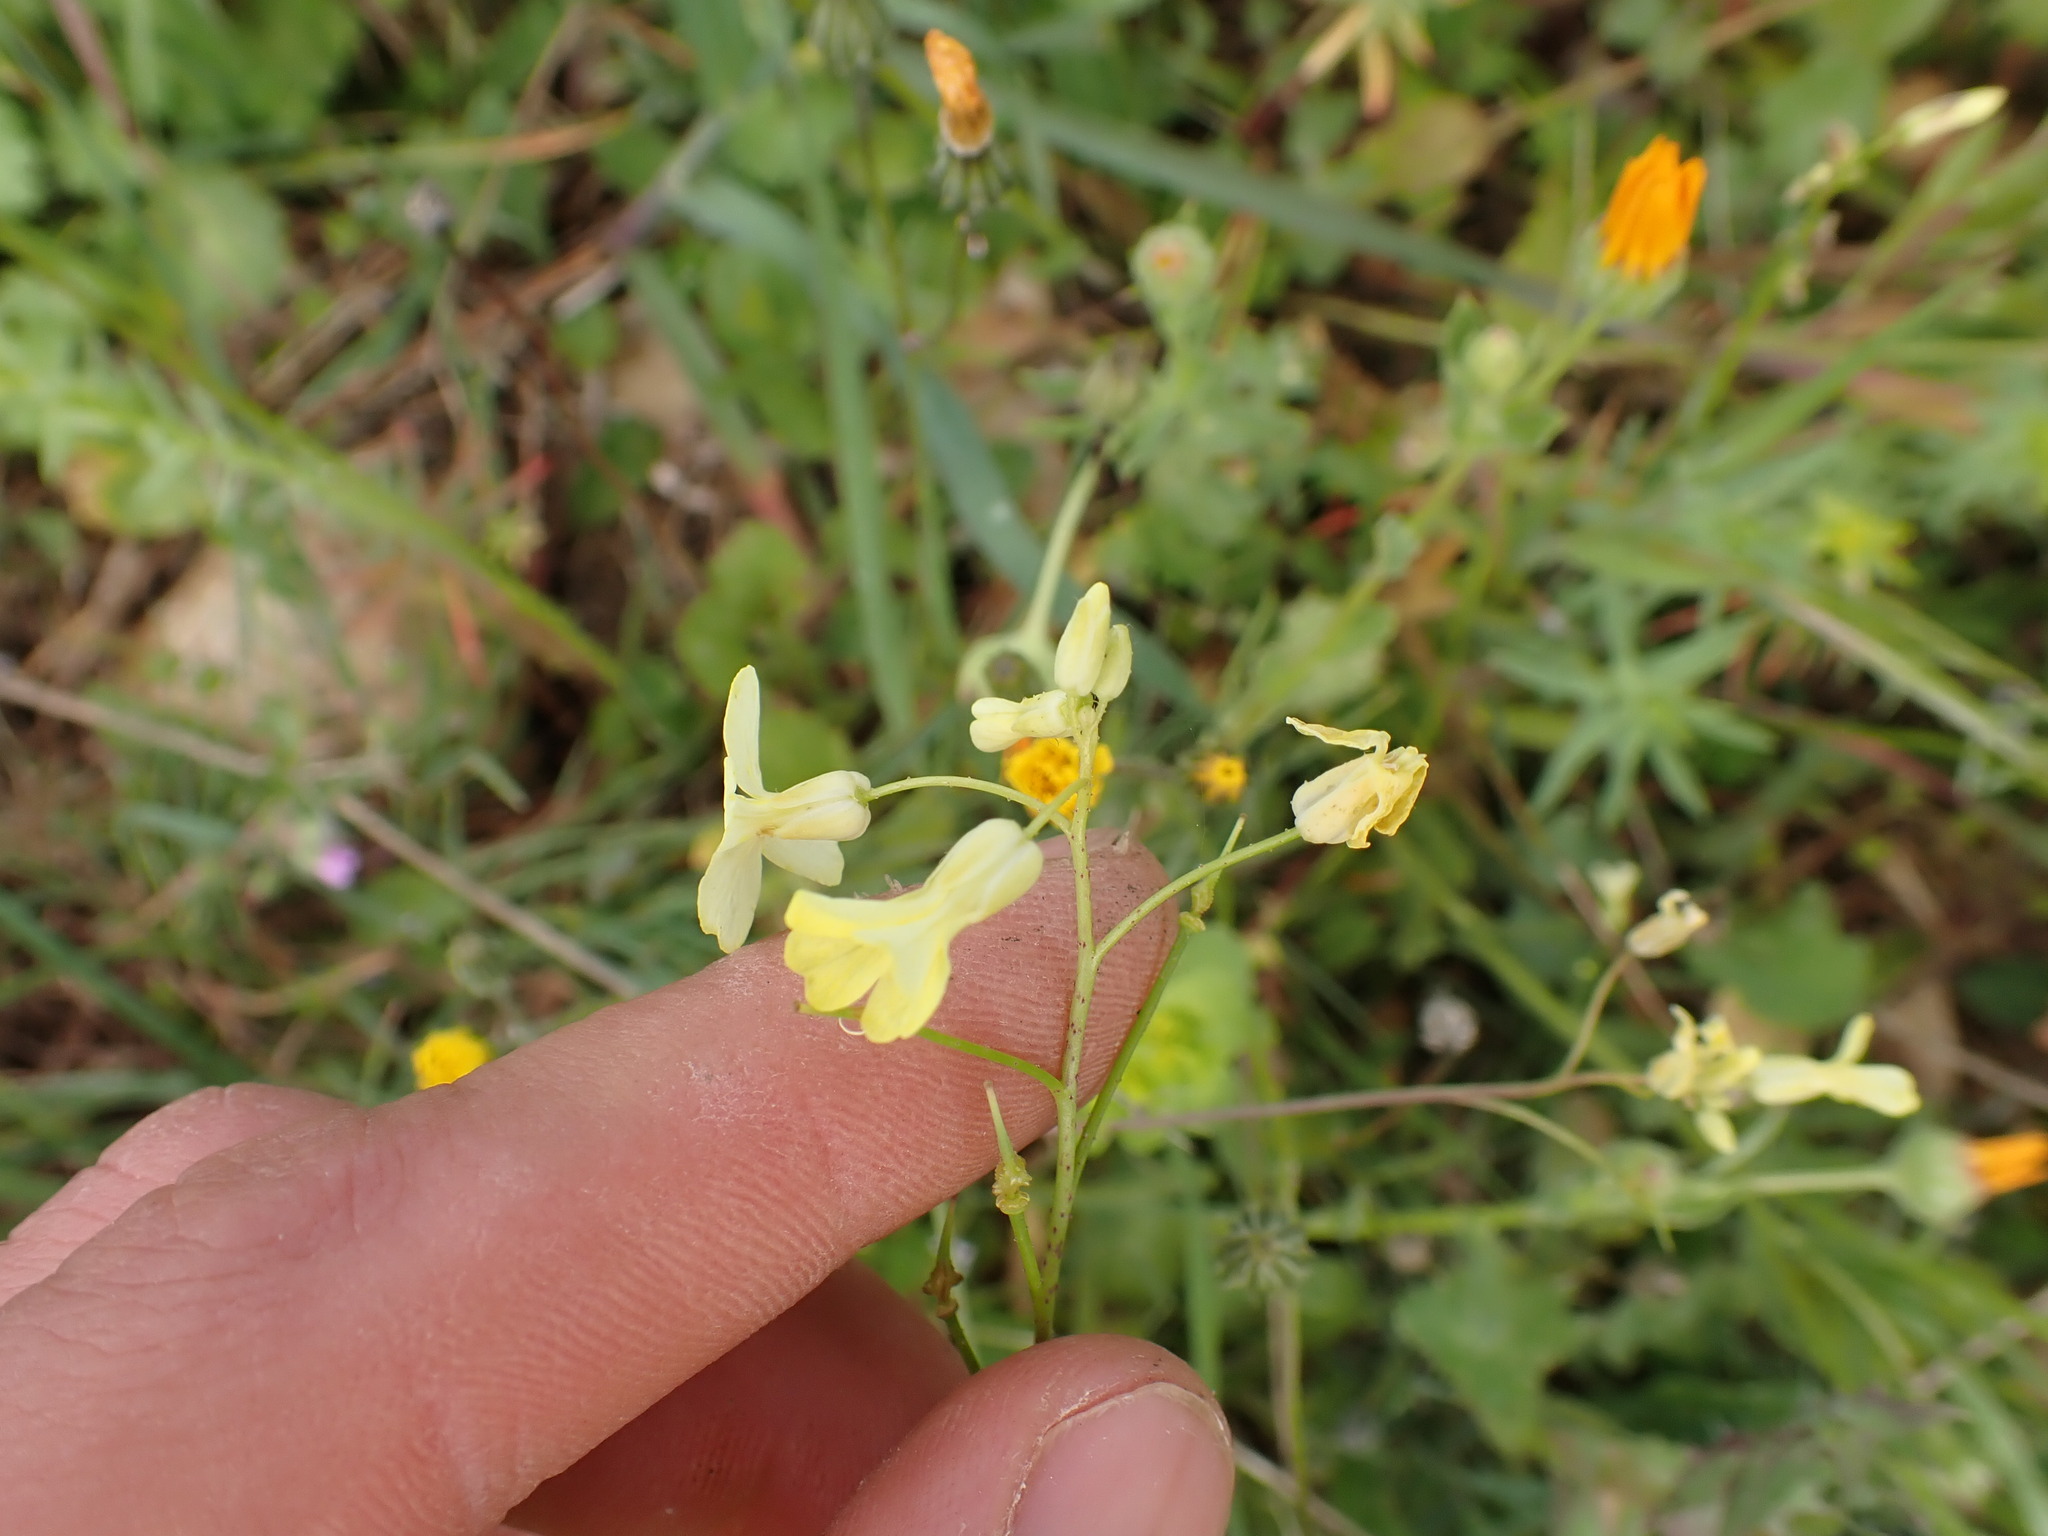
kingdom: Plantae
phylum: Tracheophyta
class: Magnoliopsida
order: Brassicales
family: Brassicaceae
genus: Bunias
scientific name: Bunias erucago
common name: Southern warty-cabbage
